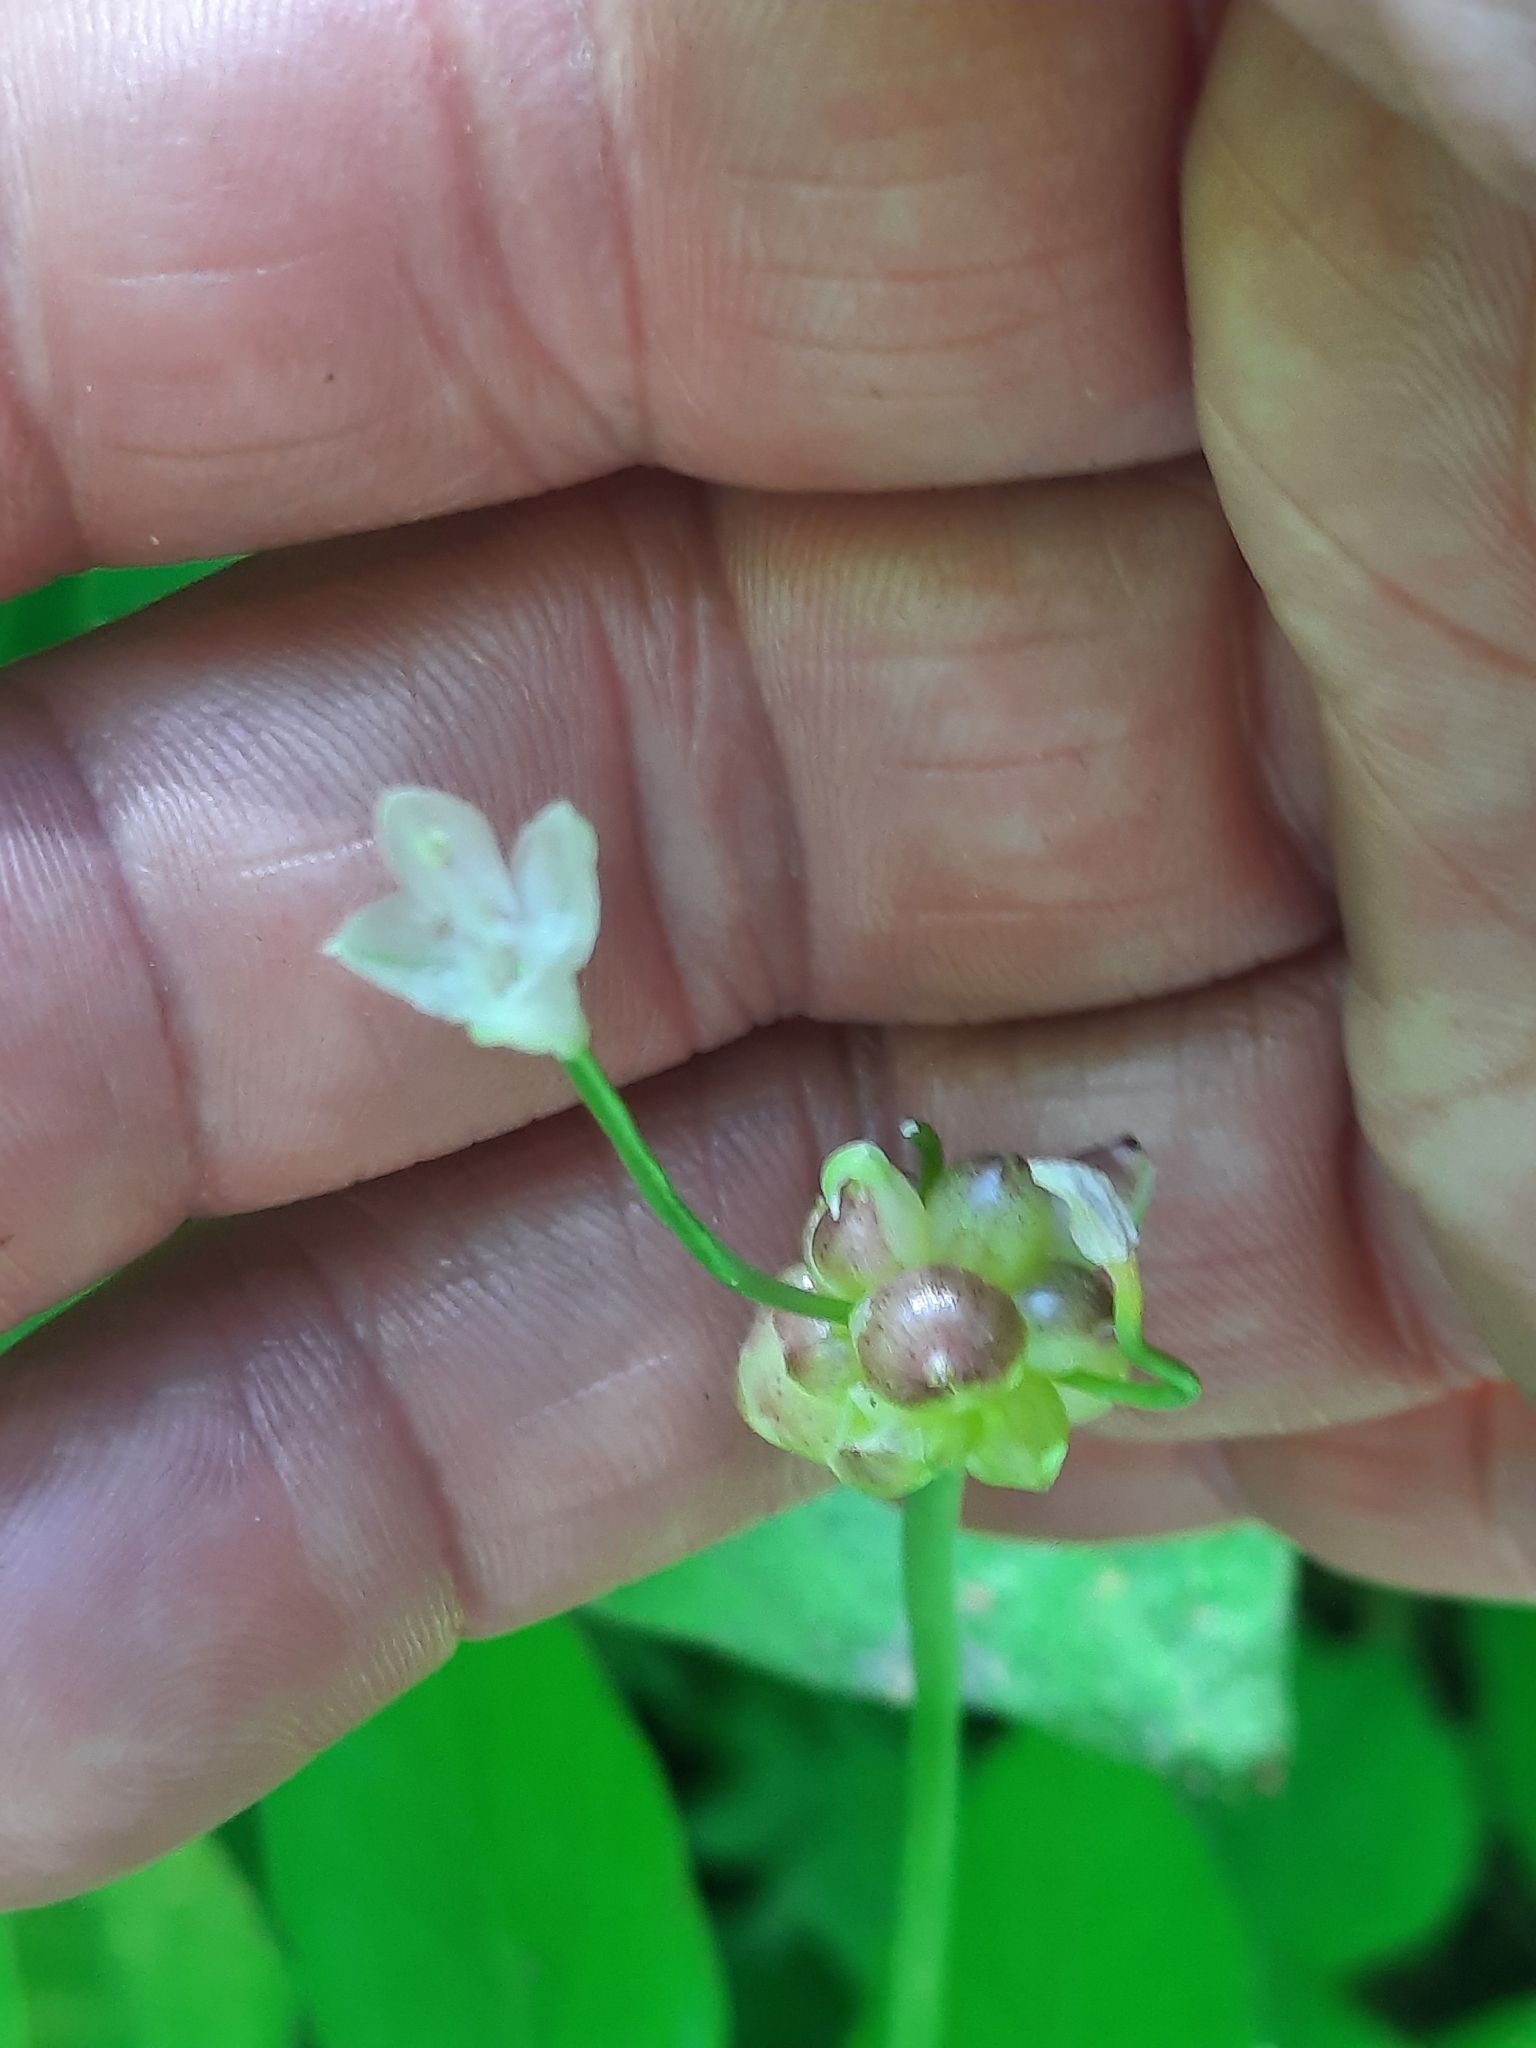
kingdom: Plantae
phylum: Tracheophyta
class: Liliopsida
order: Asparagales
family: Amaryllidaceae
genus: Allium
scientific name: Allium canadense
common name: Meadow garlic
